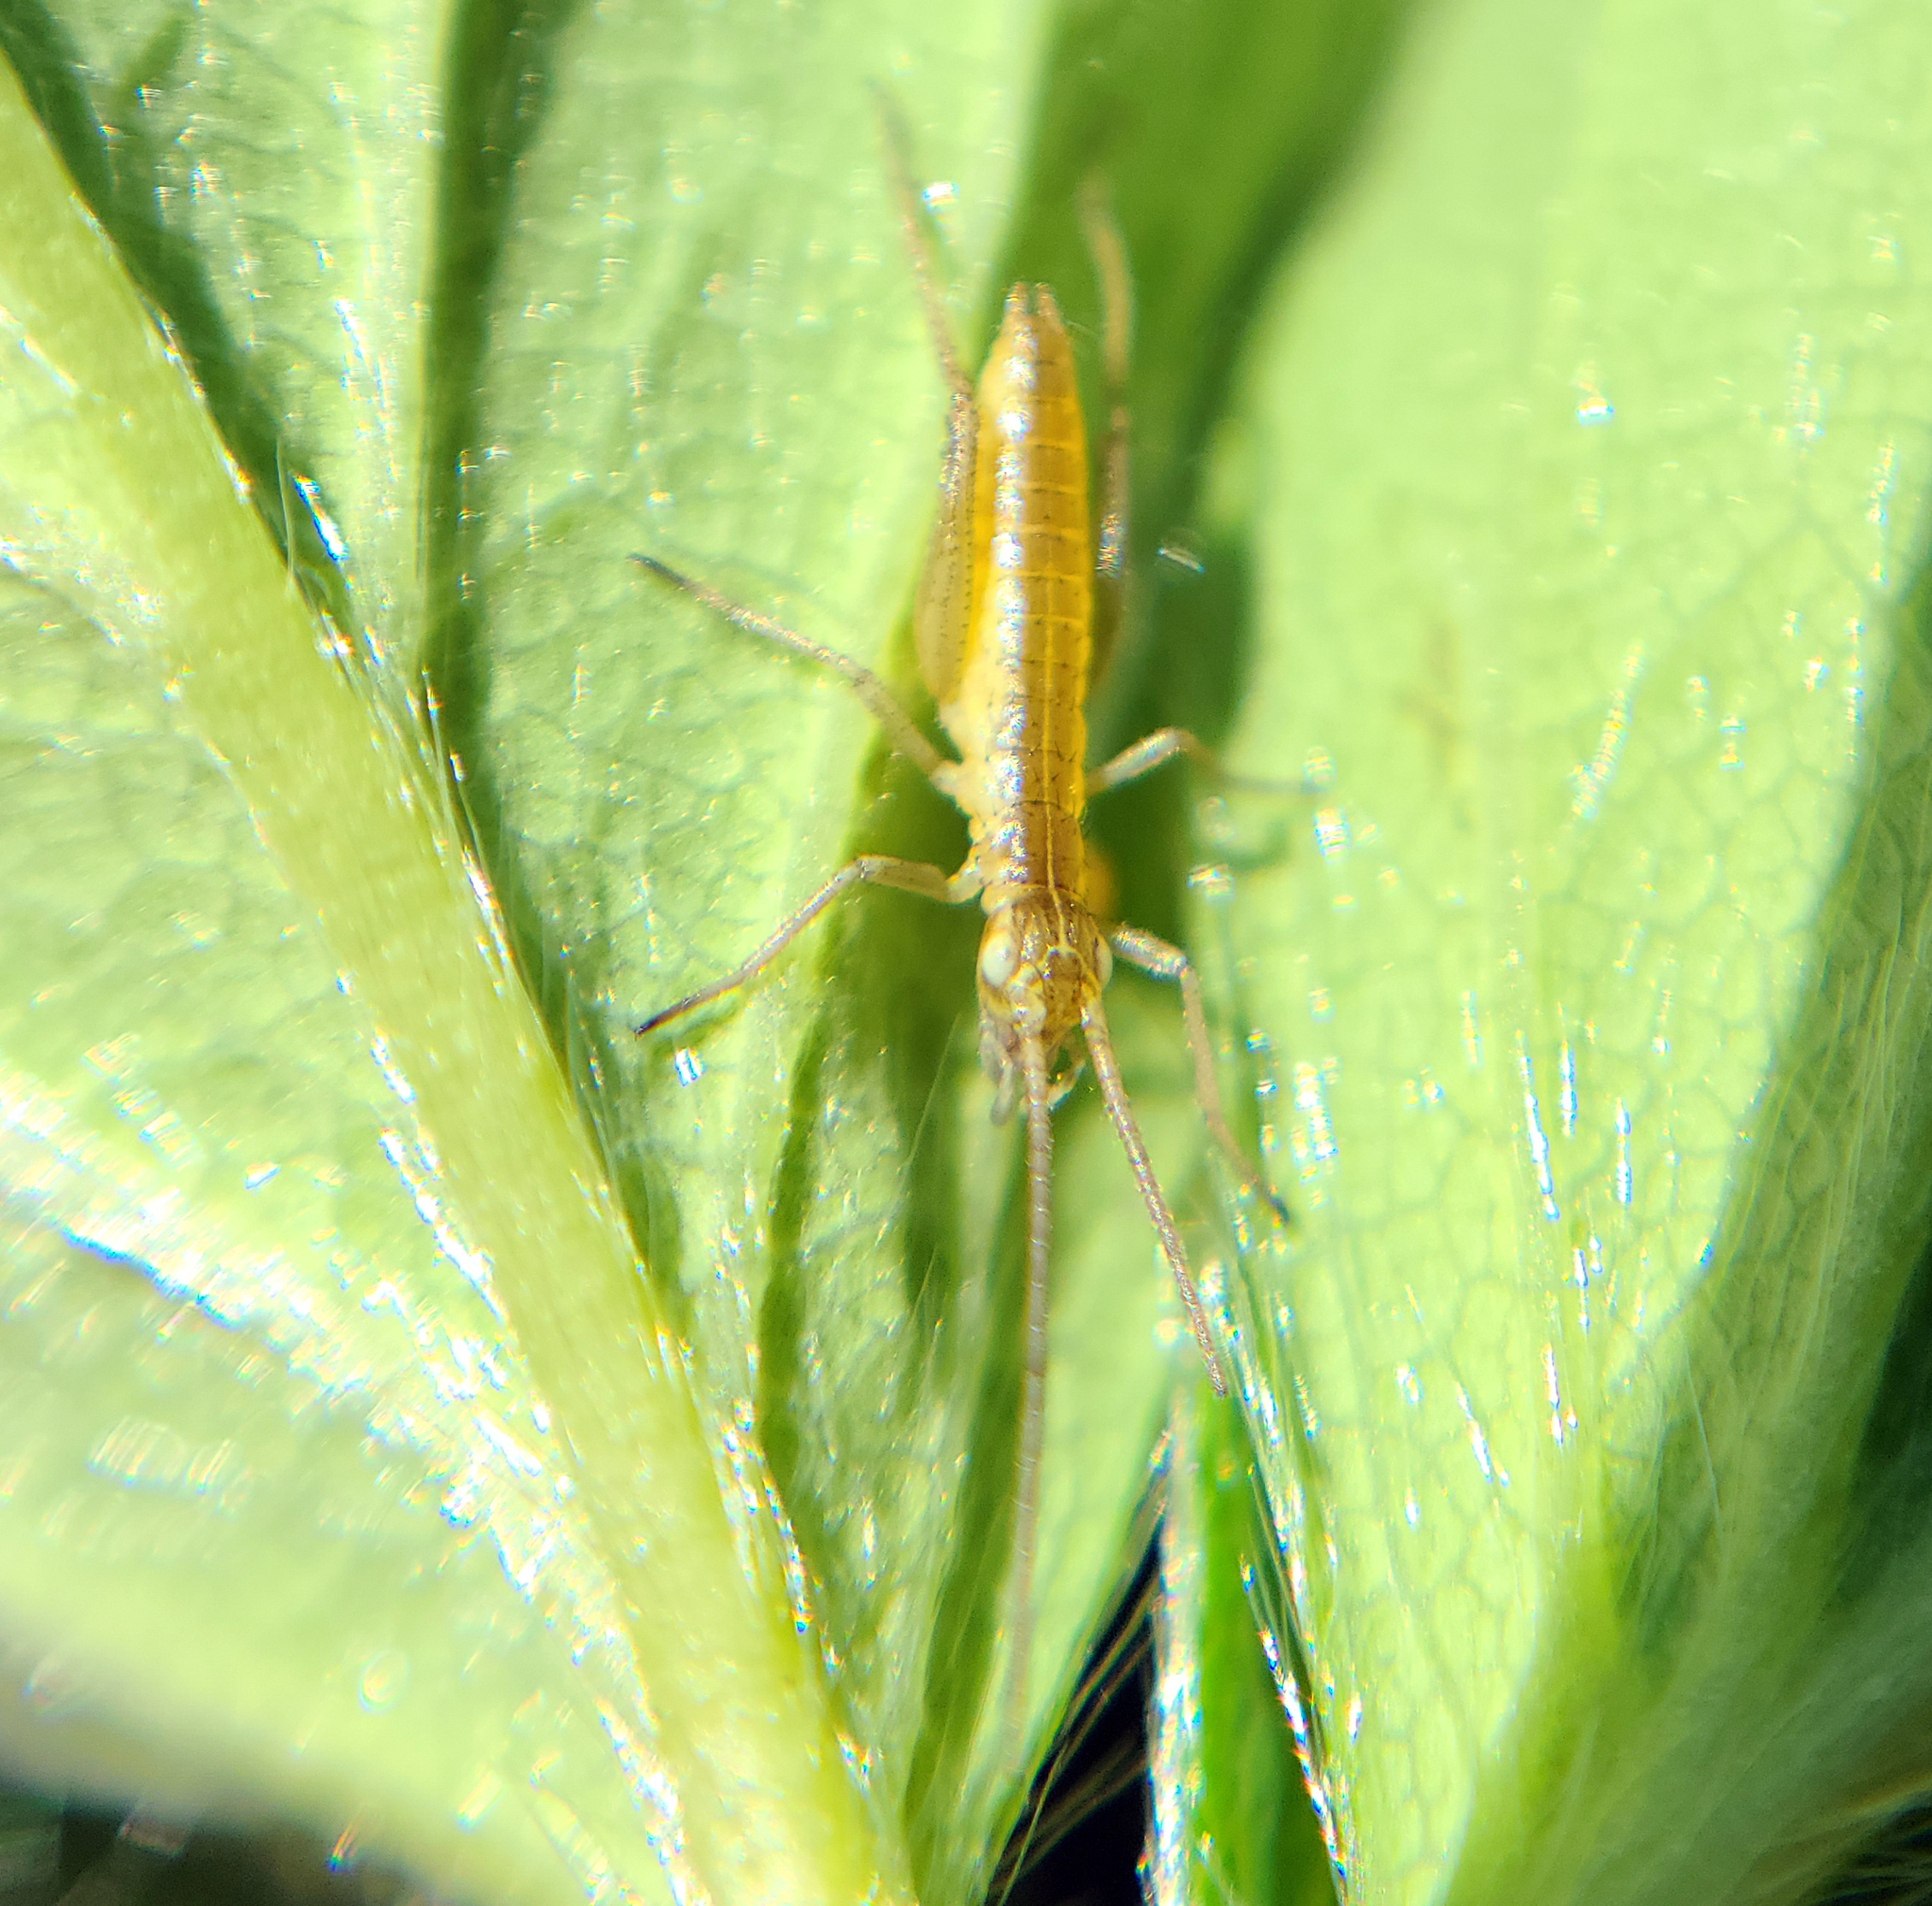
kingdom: Animalia
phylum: Arthropoda
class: Insecta
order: Orthoptera
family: Gryllidae
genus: Oecanthus
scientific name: Oecanthus
